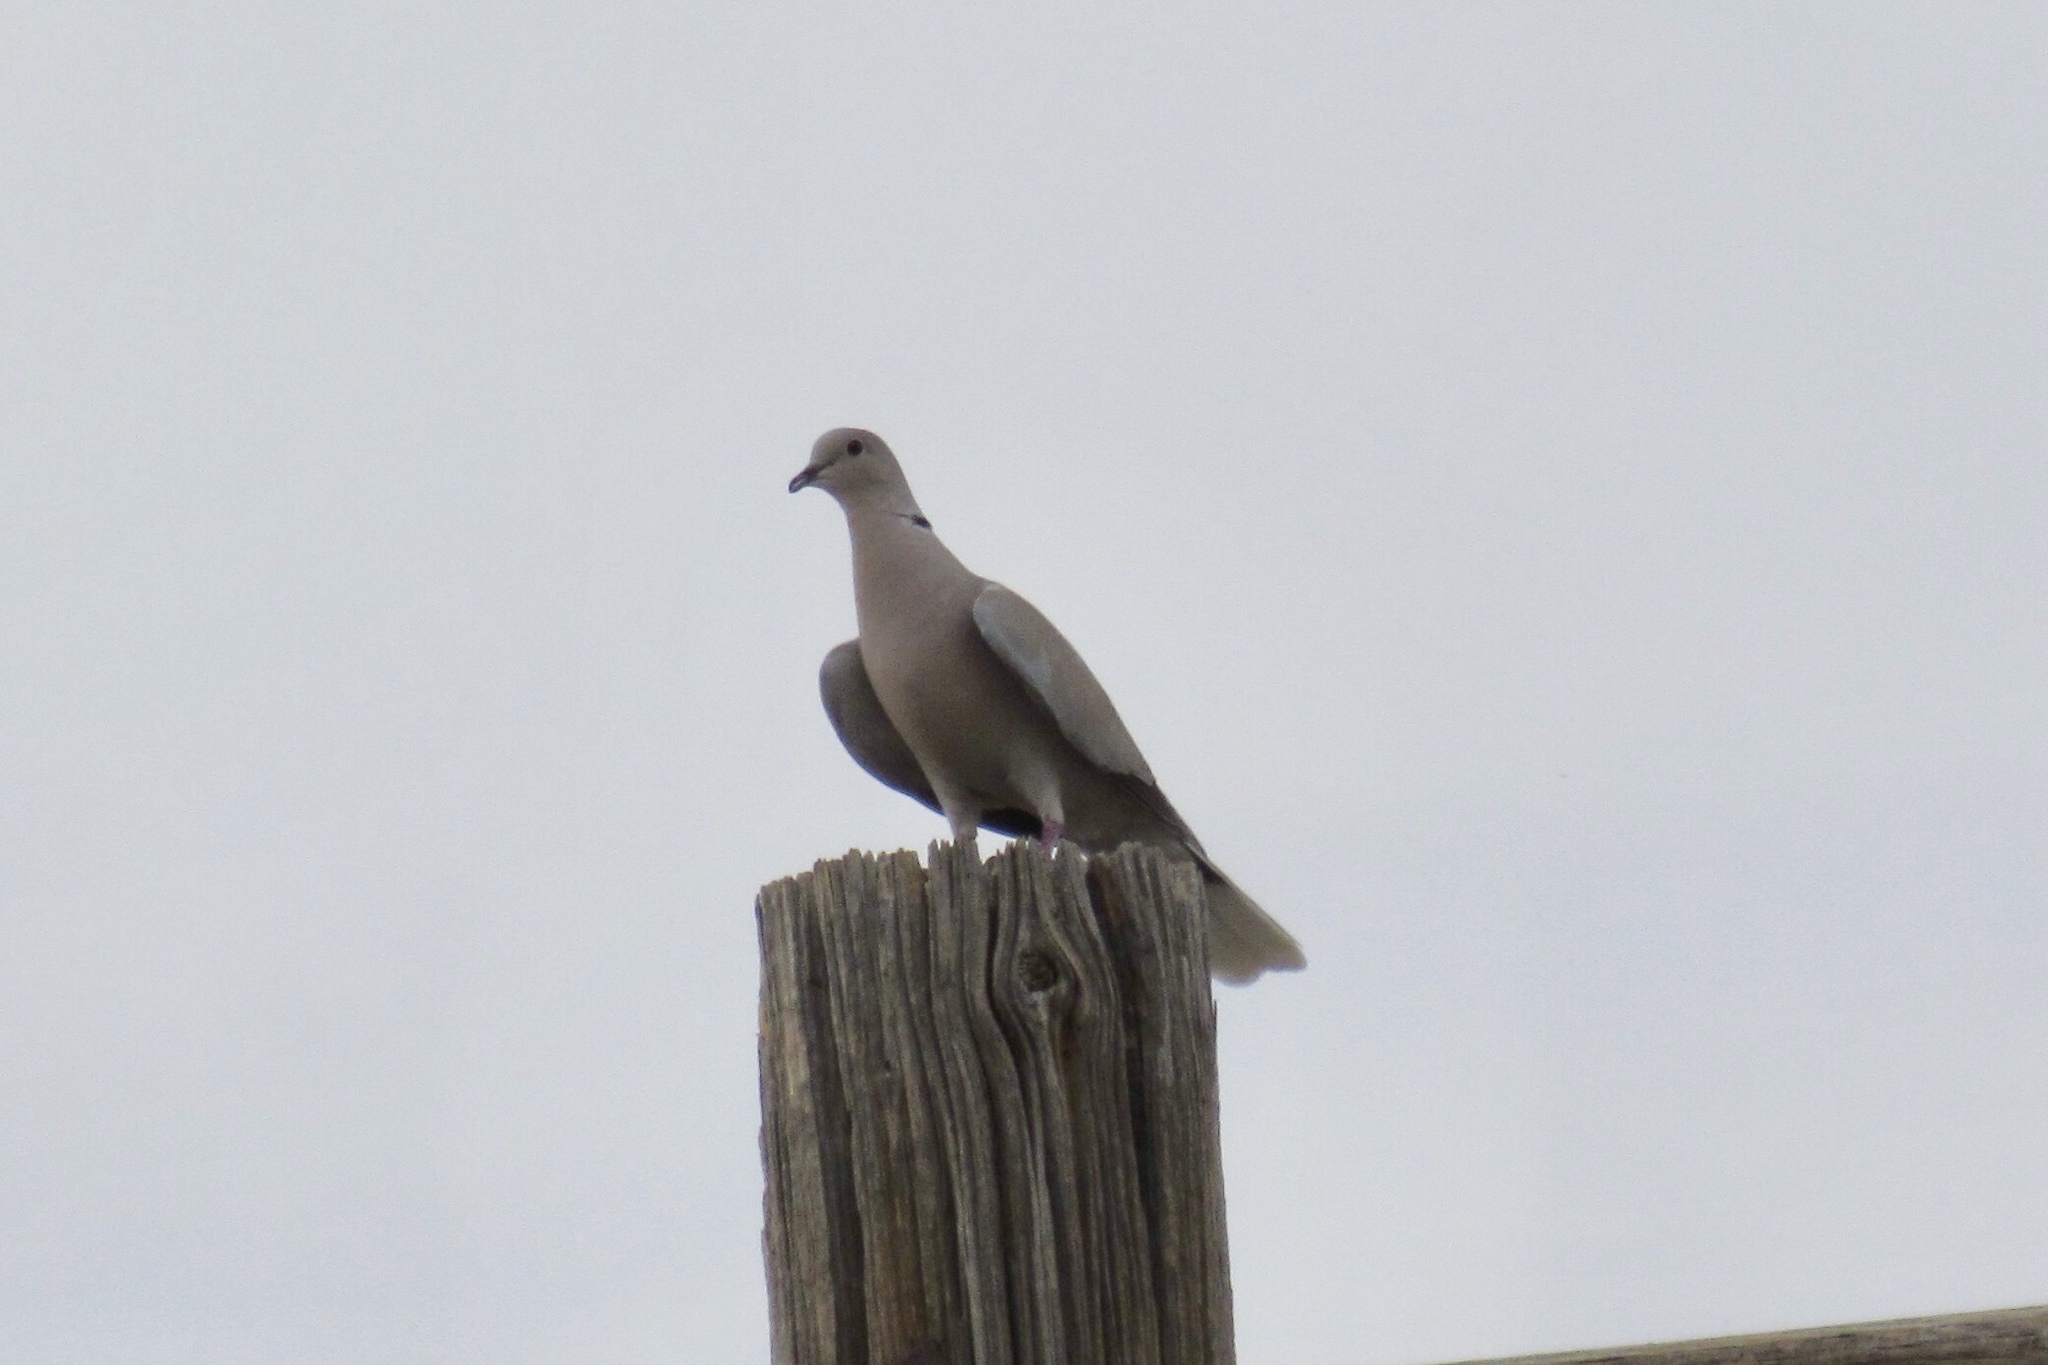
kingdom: Animalia
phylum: Chordata
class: Aves
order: Columbiformes
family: Columbidae
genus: Streptopelia
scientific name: Streptopelia decaocto
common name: Eurasian collared dove
